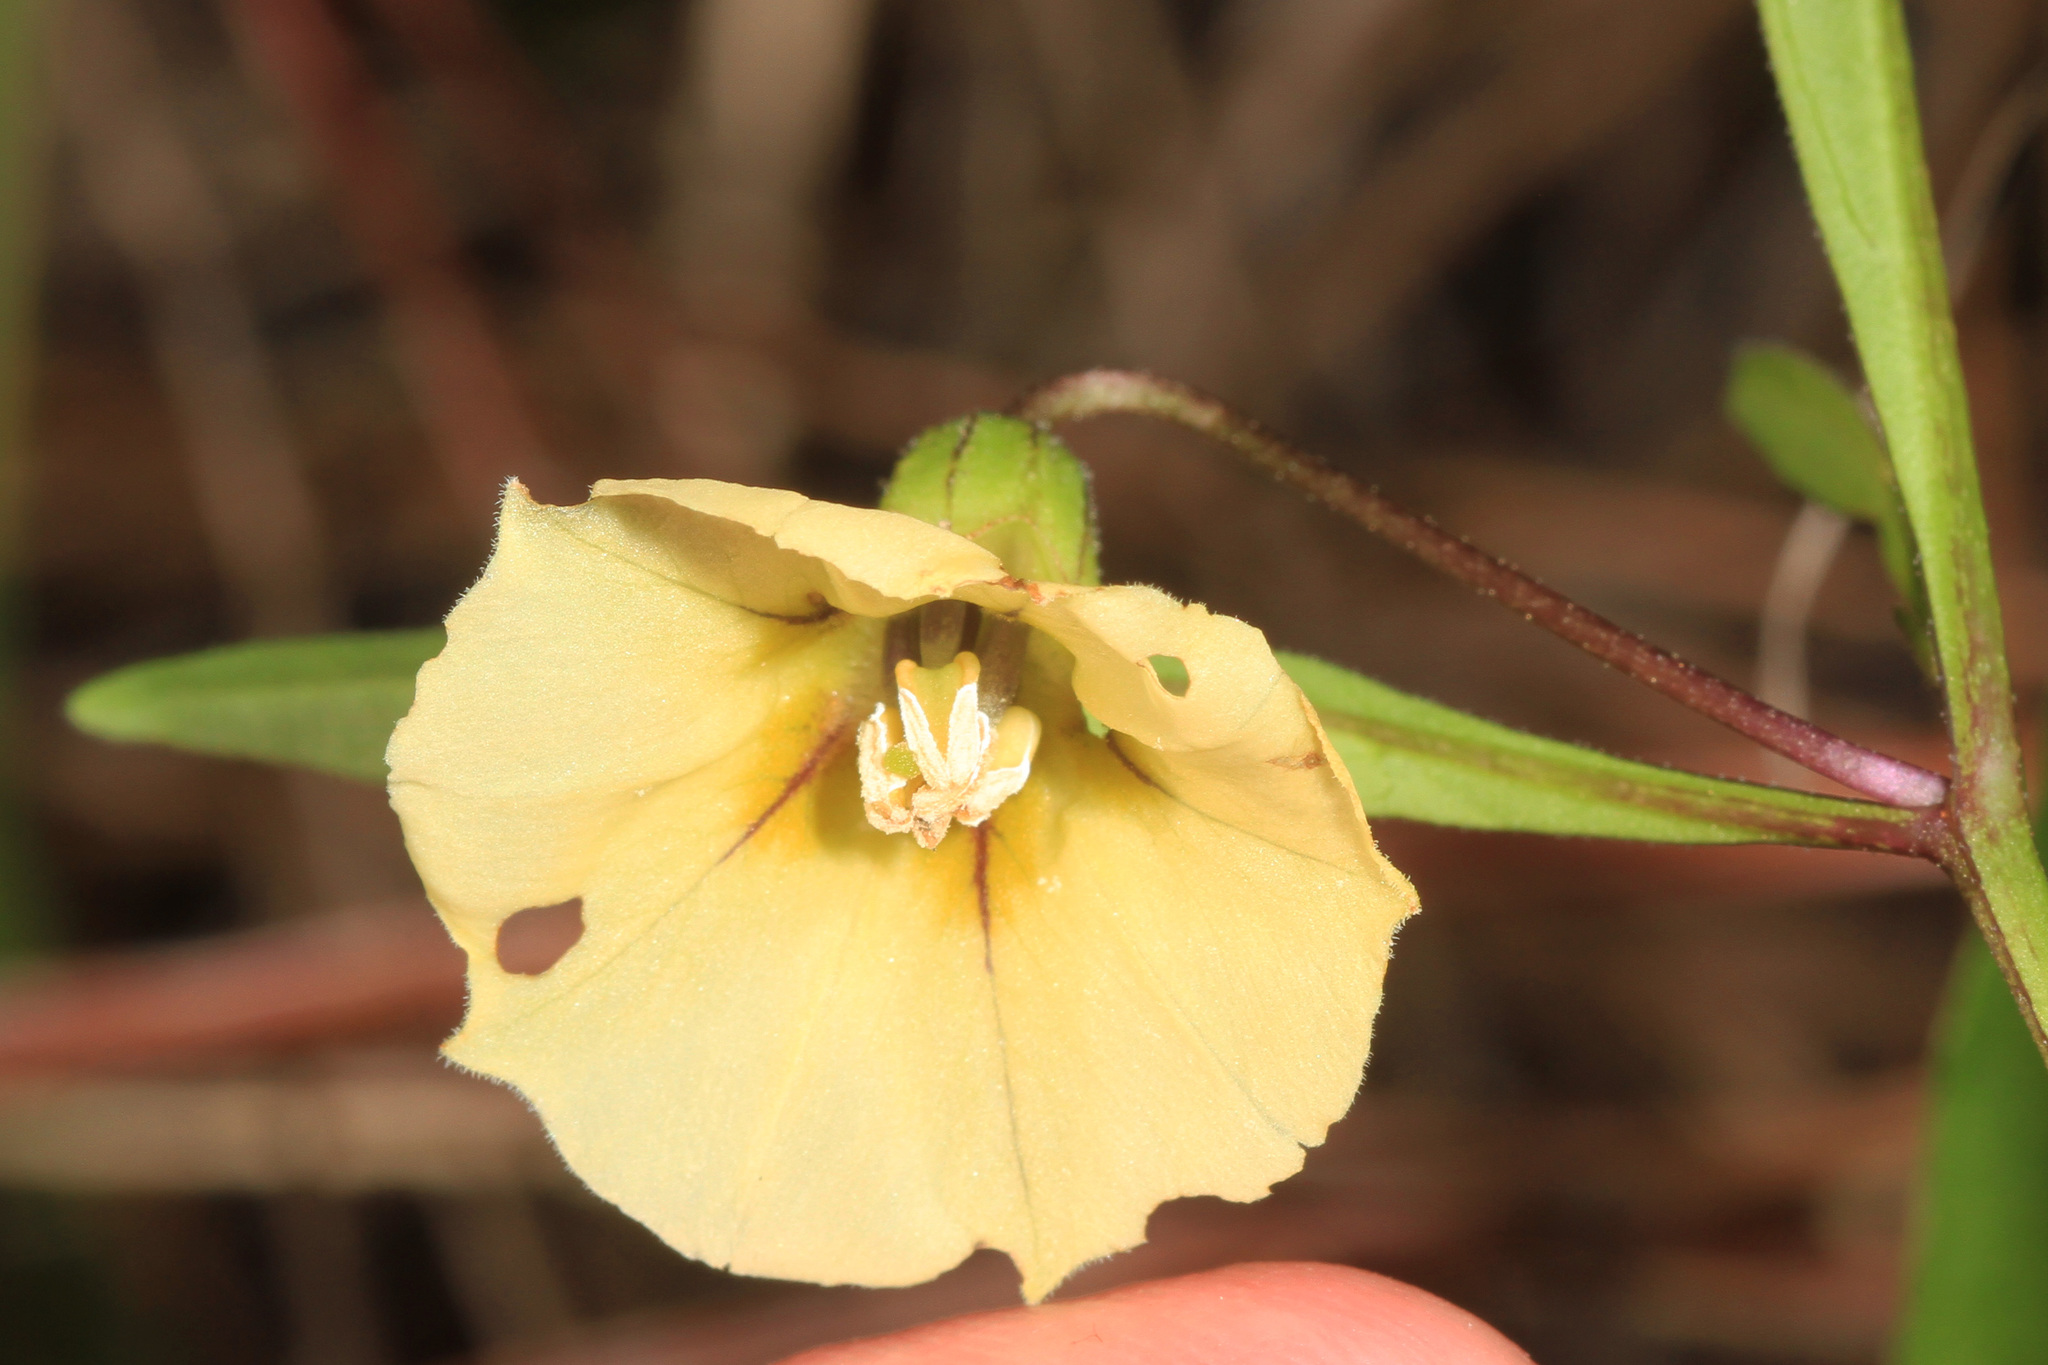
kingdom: Plantae
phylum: Tracheophyta
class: Magnoliopsida
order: Solanales
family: Solanaceae
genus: Physalis
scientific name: Physalis walteri
